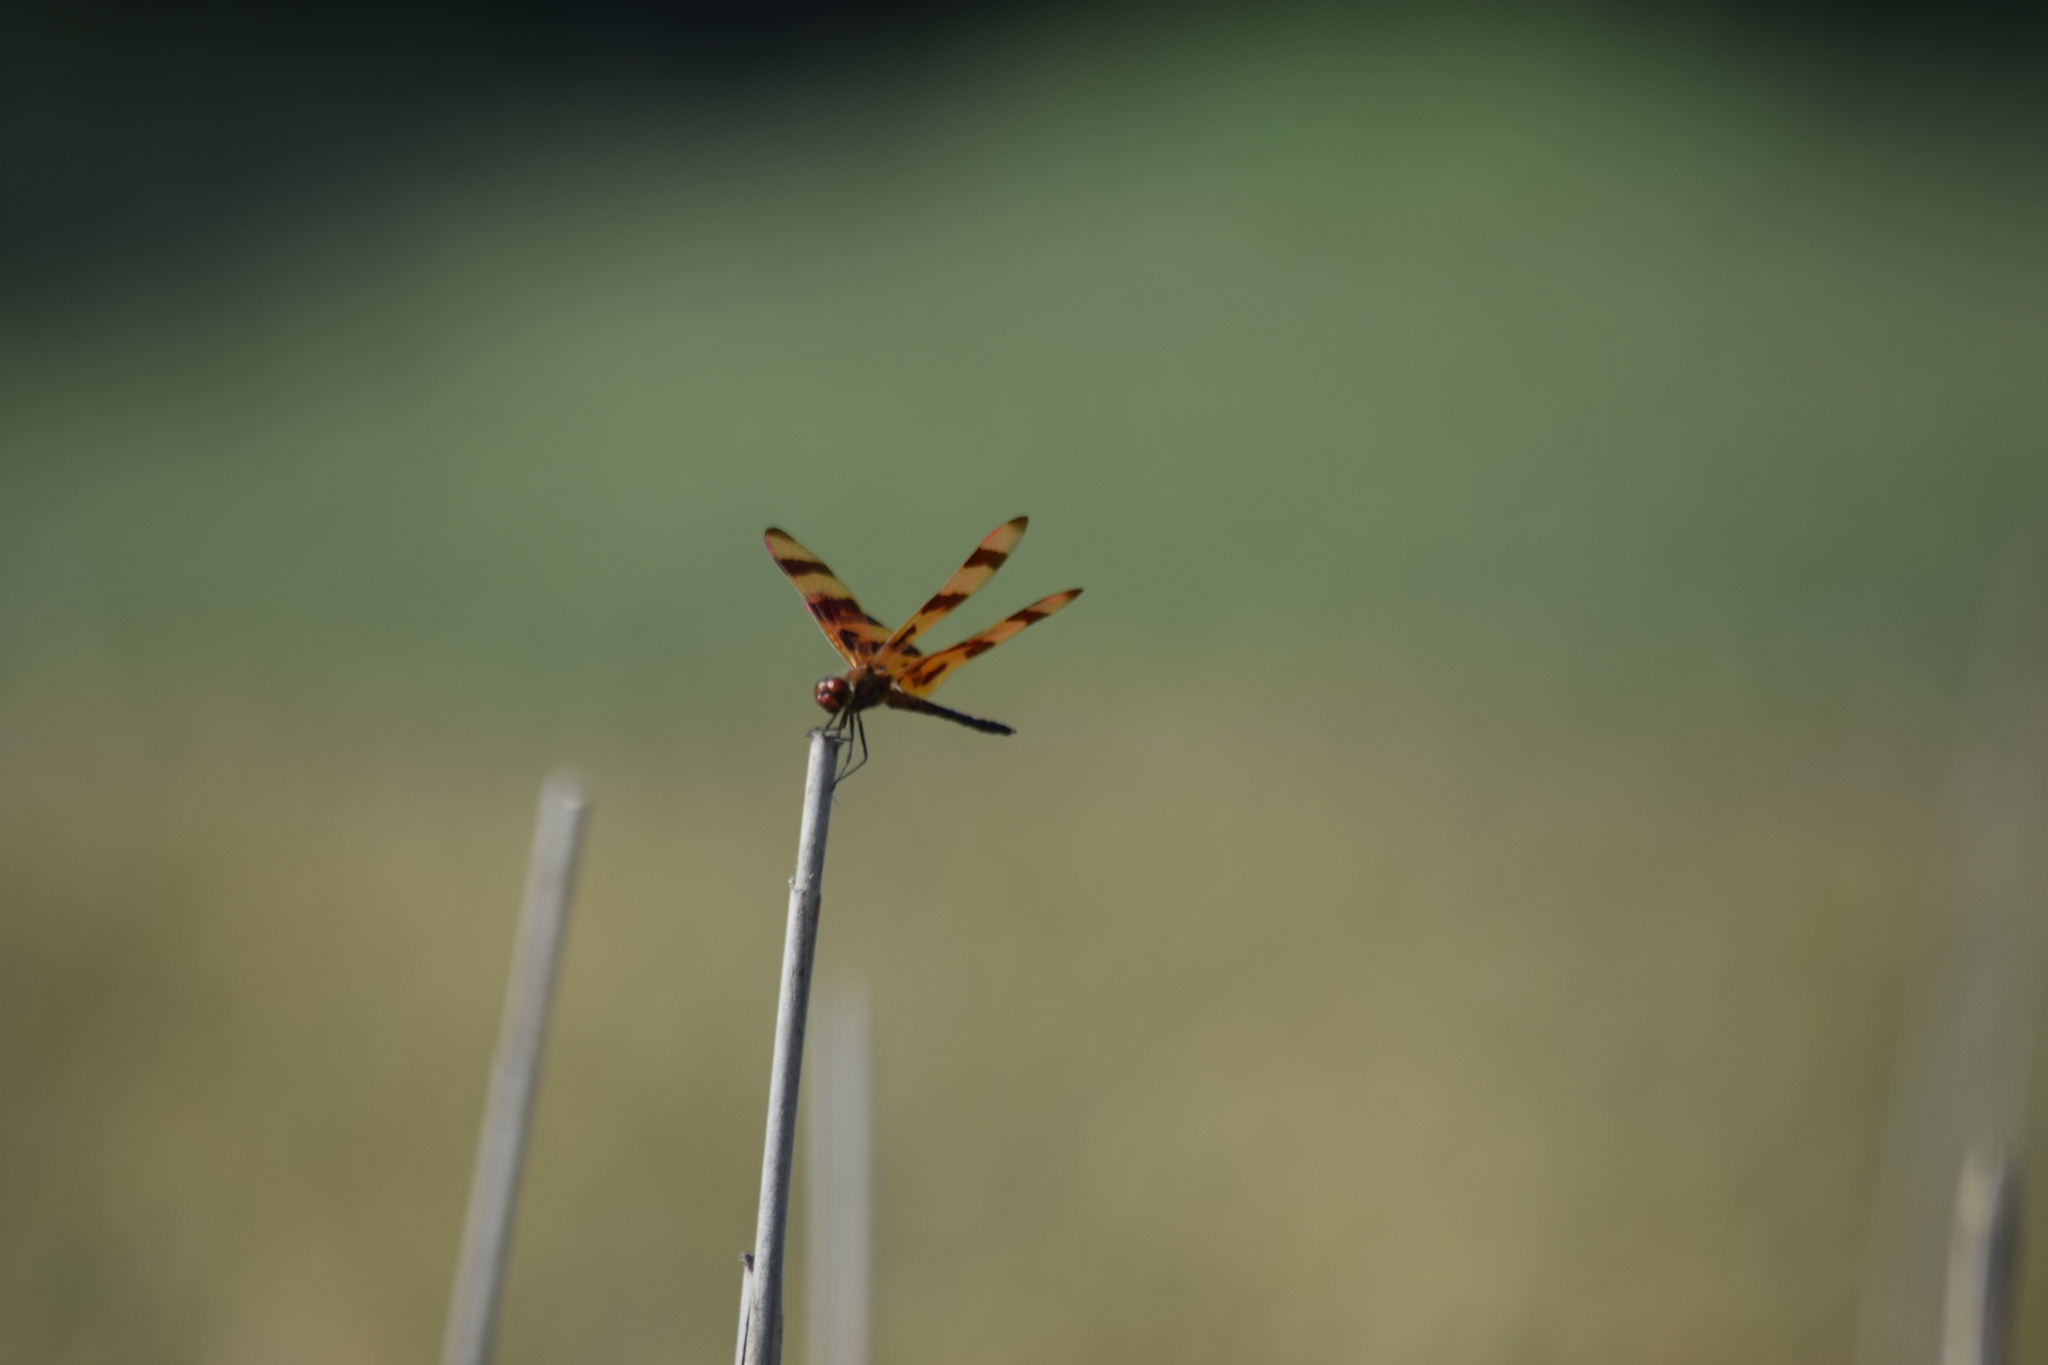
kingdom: Animalia
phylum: Arthropoda
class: Insecta
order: Odonata
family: Libellulidae
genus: Celithemis
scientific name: Celithemis eponina
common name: Halloween pennant
